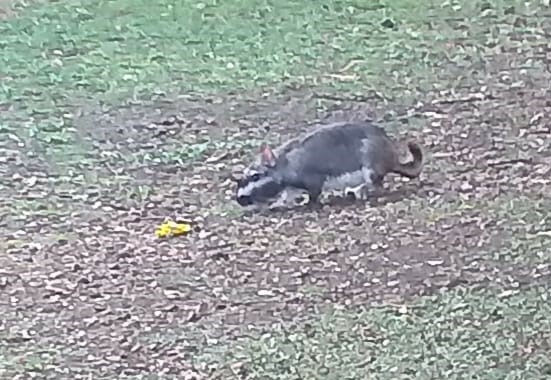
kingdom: Animalia
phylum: Chordata
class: Mammalia
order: Rodentia
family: Chinchillidae
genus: Lagostomus
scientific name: Lagostomus maximus
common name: Plains viscacha
